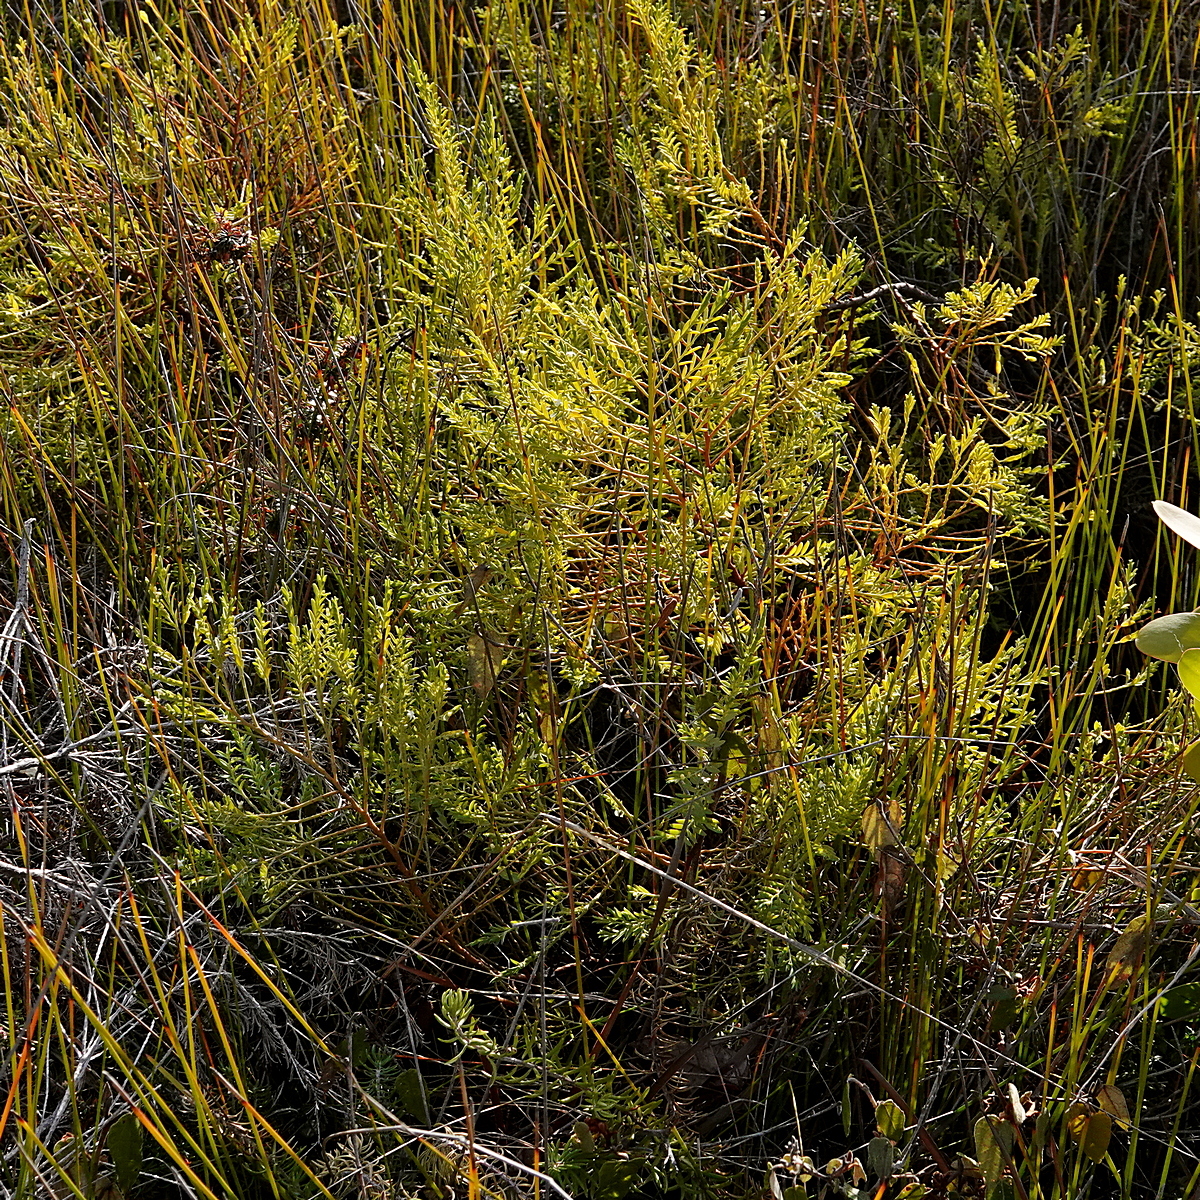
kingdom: Plantae
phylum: Tracheophyta
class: Magnoliopsida
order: Santalales
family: Olacaceae
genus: Olax
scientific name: Olax stricta
